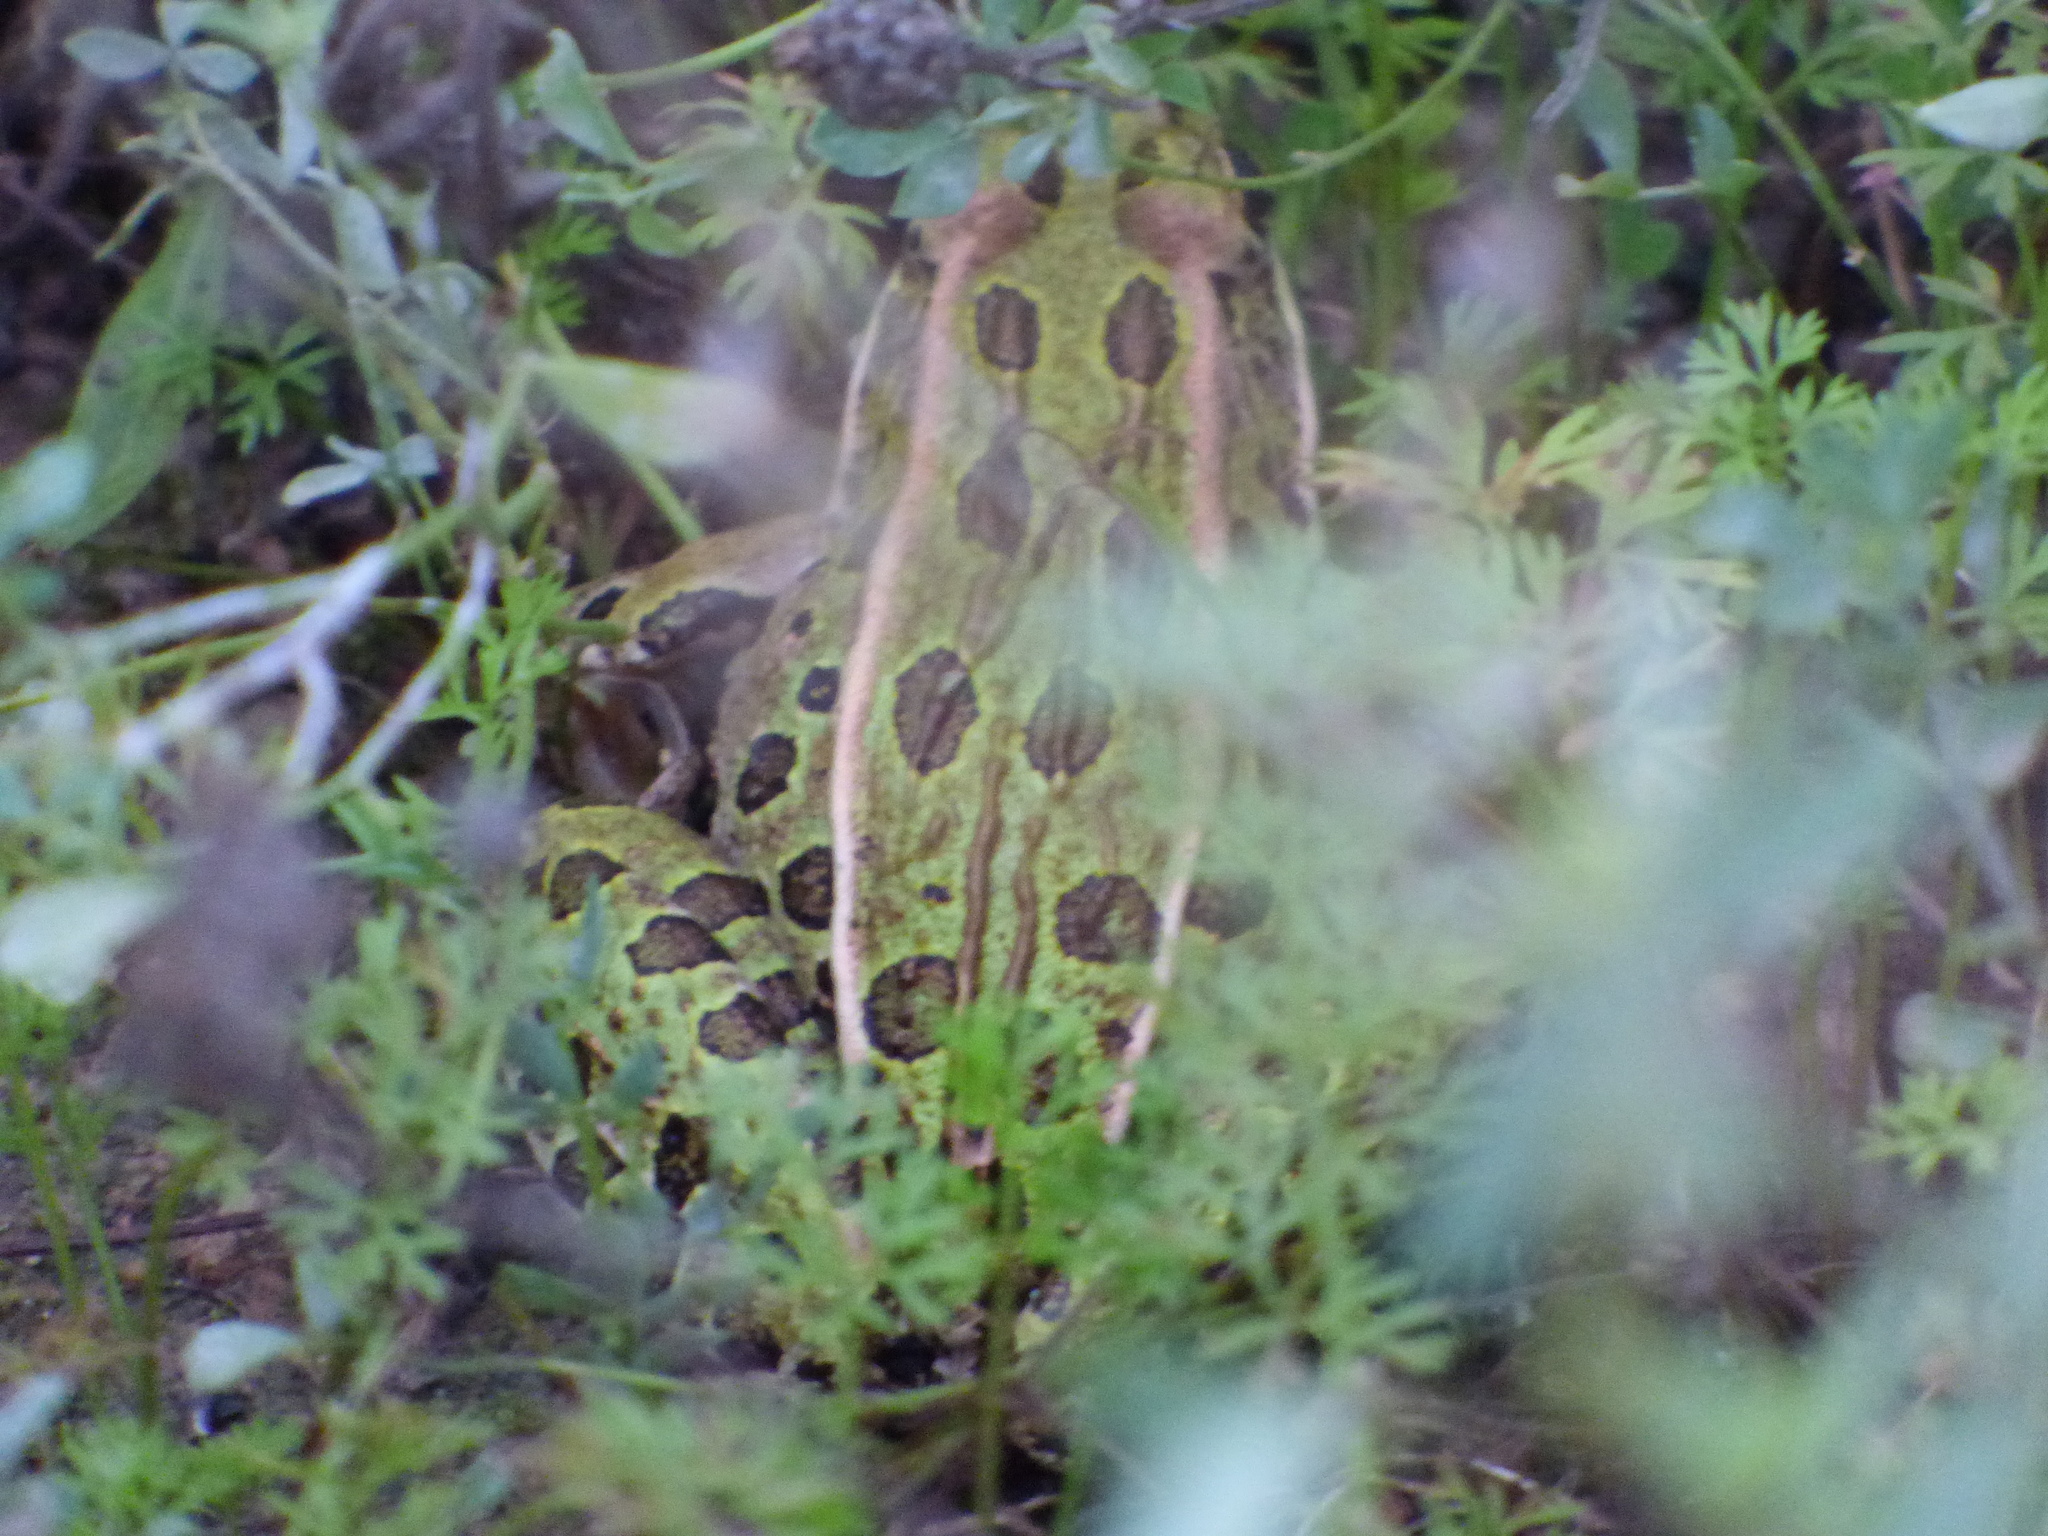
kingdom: Animalia
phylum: Chordata
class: Amphibia
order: Anura
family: Ranidae
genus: Lithobates
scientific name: Lithobates pipiens
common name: Northern leopard frog
